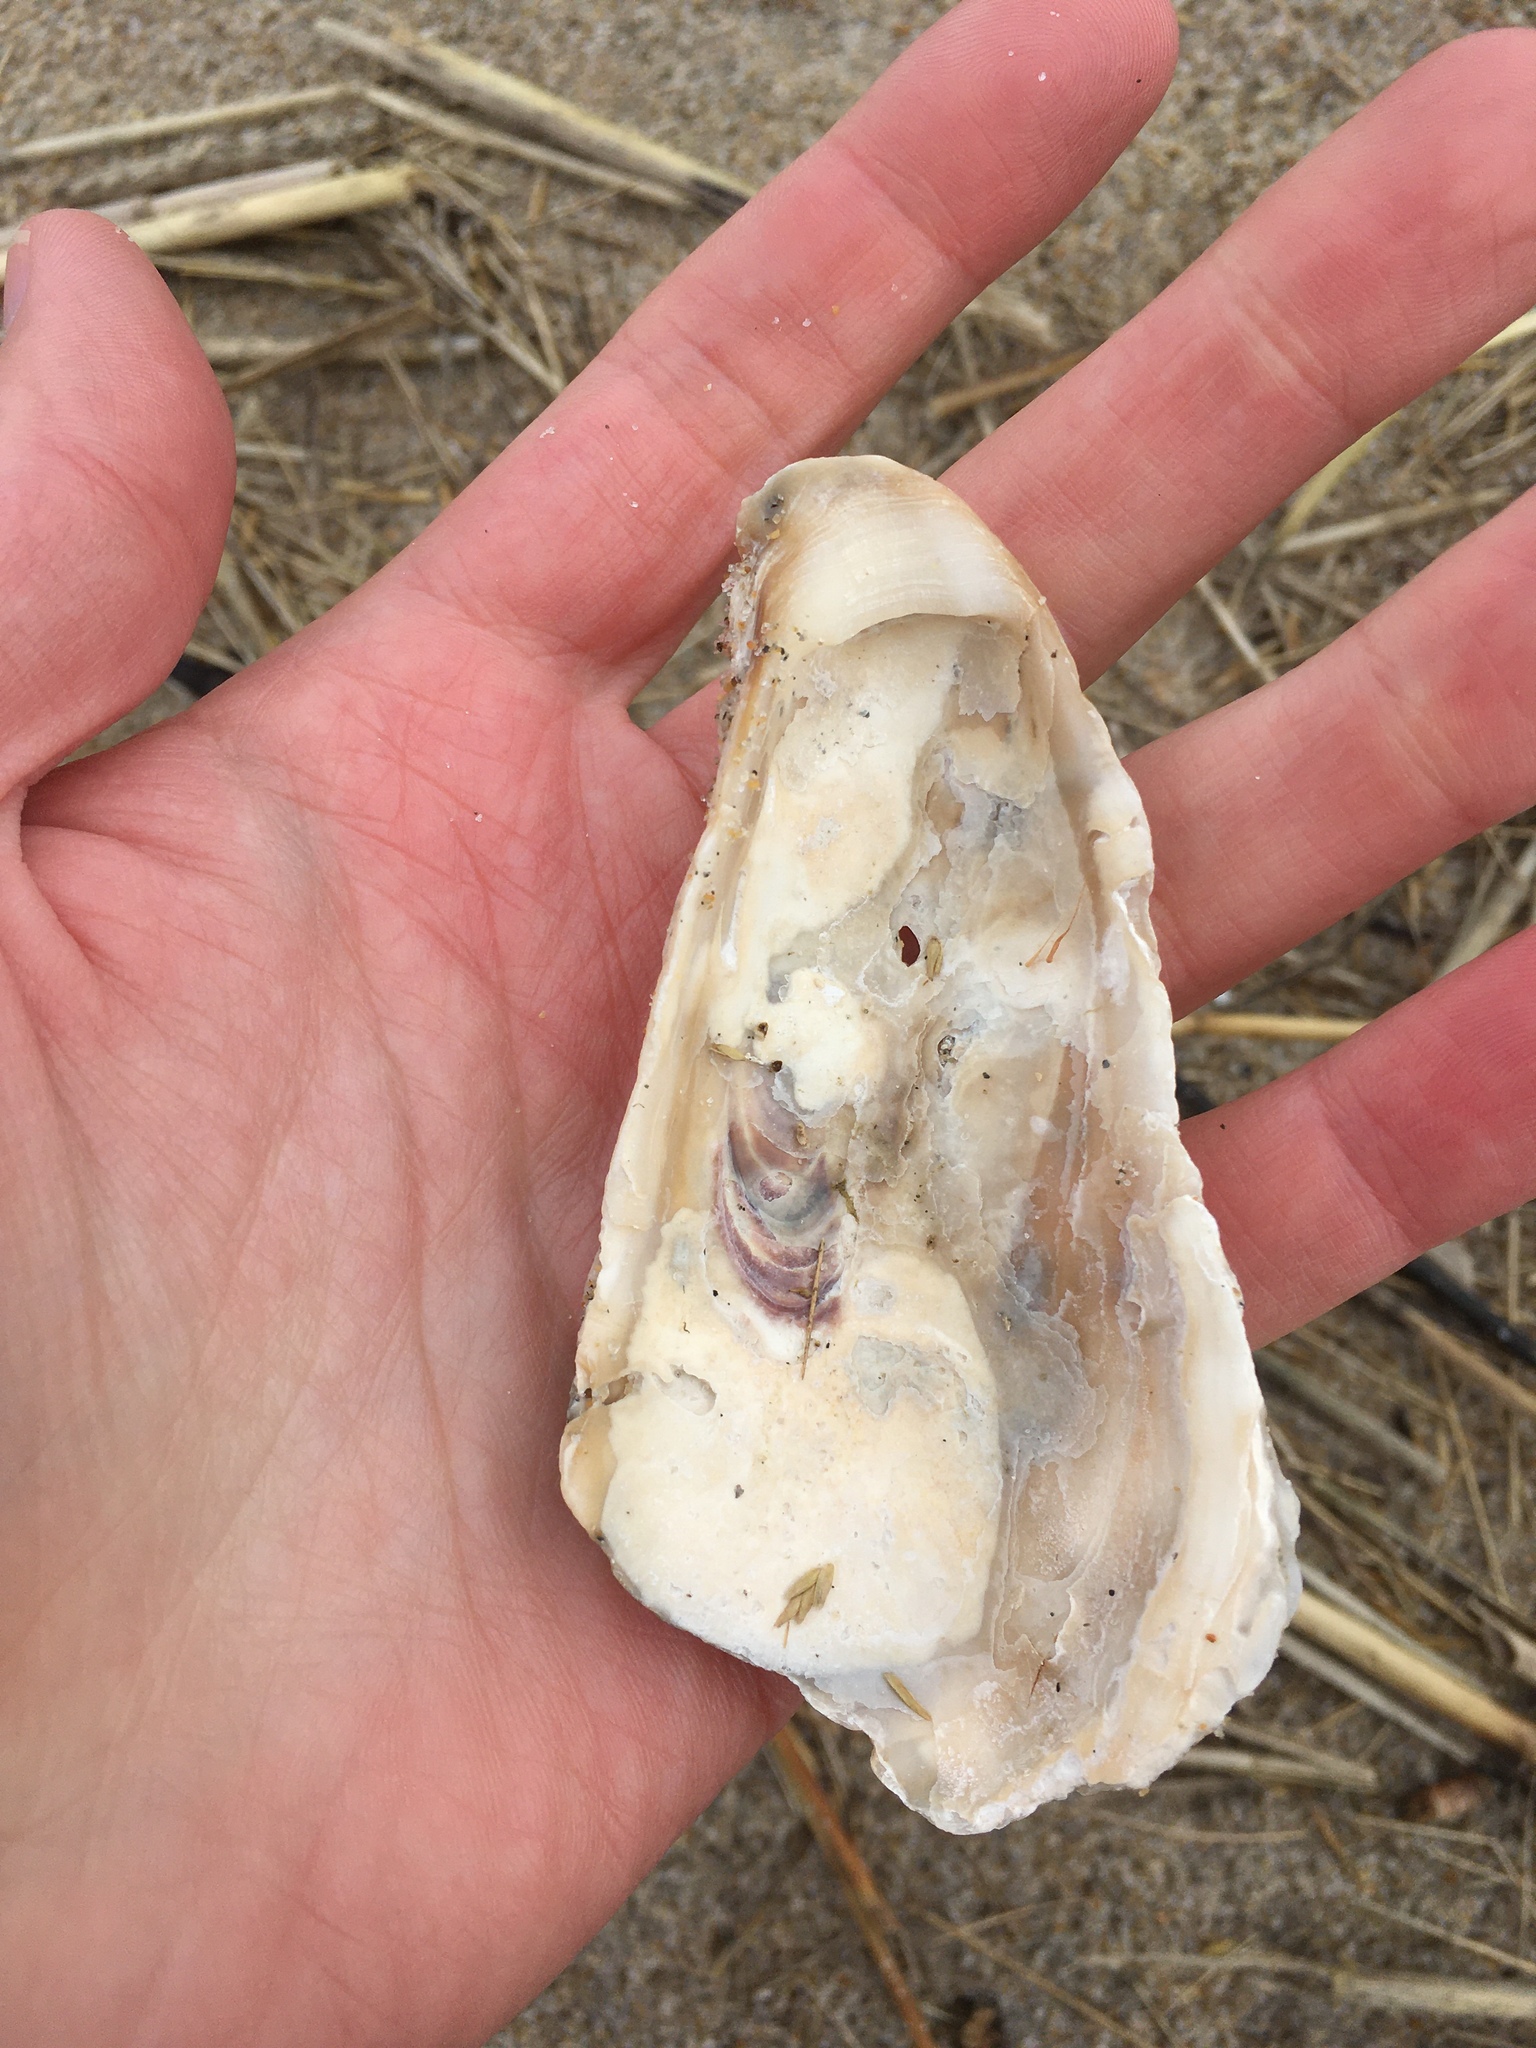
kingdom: Animalia
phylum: Mollusca
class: Bivalvia
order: Ostreida
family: Ostreidae
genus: Crassostrea
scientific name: Crassostrea virginica
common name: American oyster
